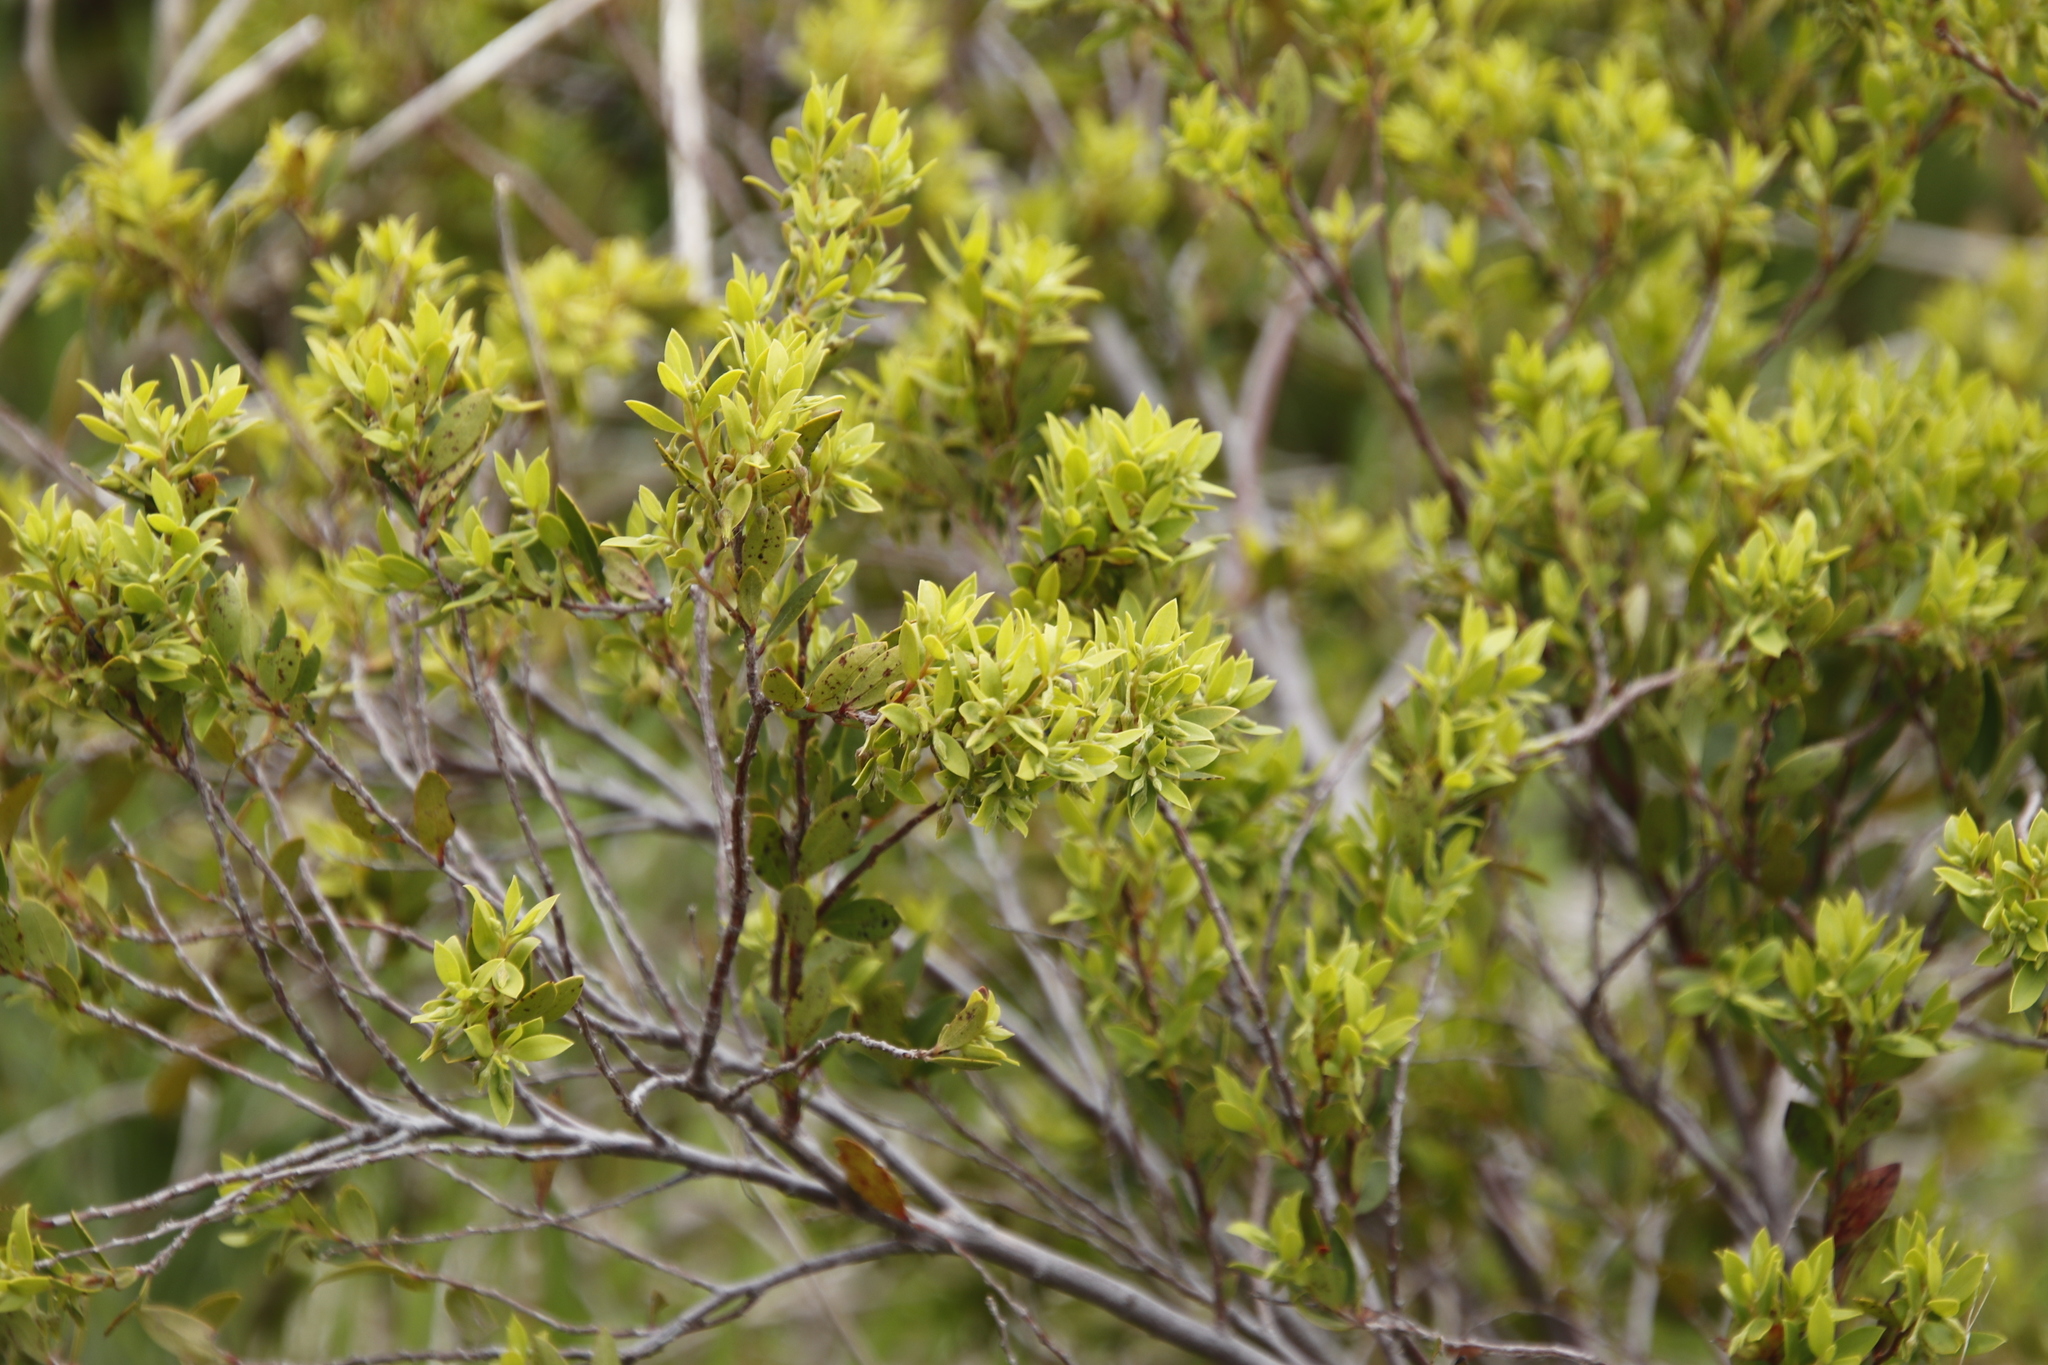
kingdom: Plantae
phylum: Tracheophyta
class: Magnoliopsida
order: Ericales
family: Ebenaceae
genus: Diospyros
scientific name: Diospyros glabra
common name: Fynbos star apple
